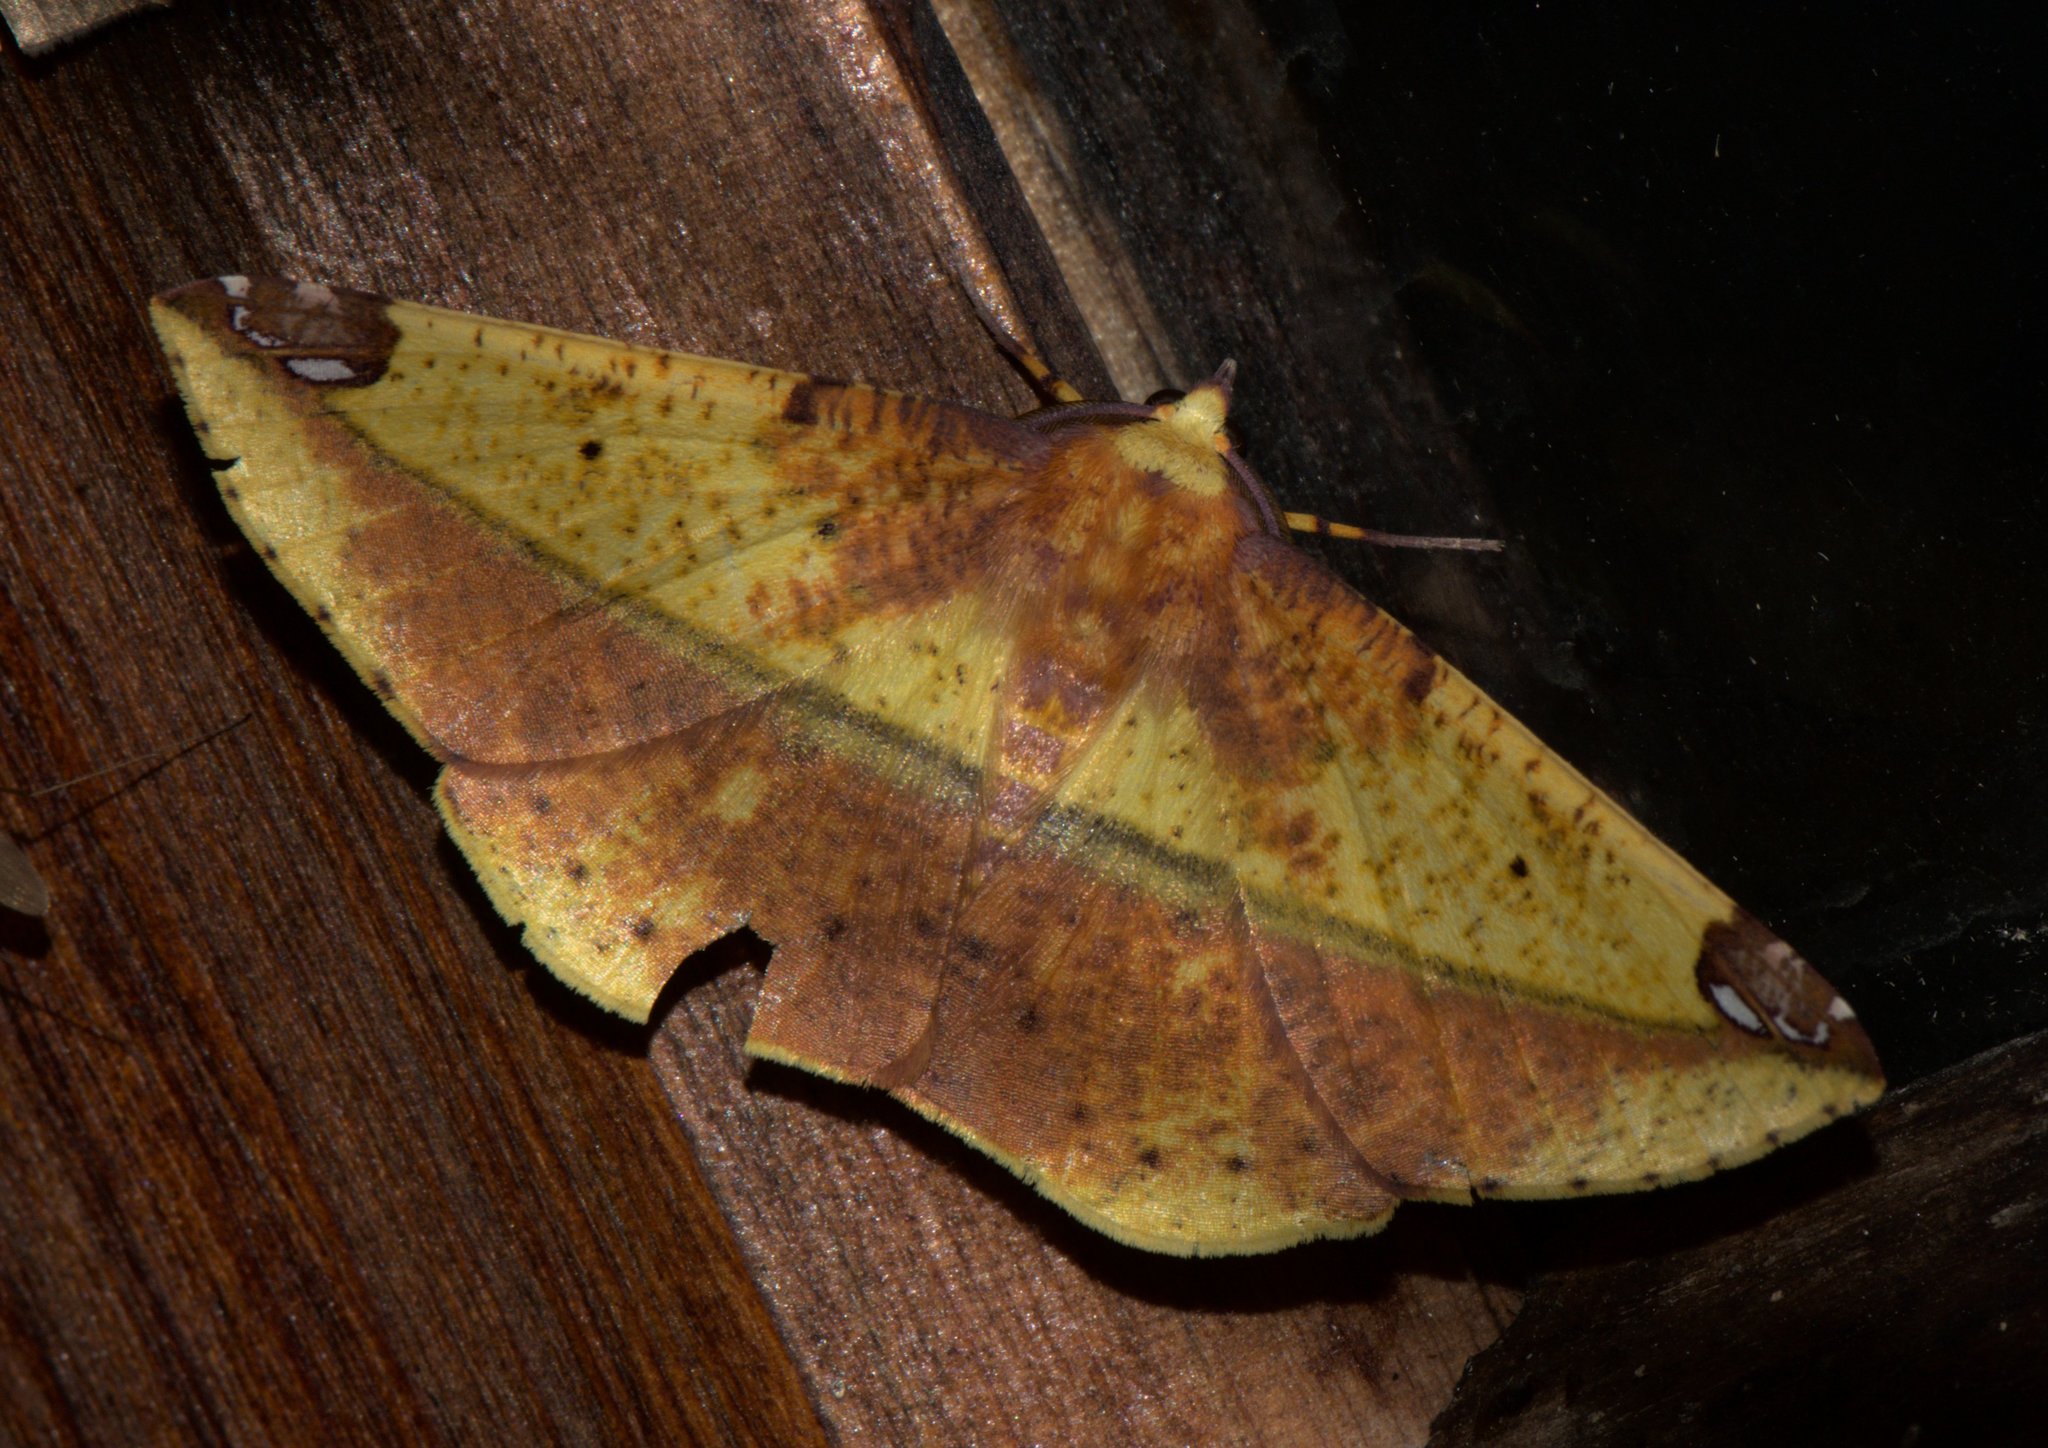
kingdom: Animalia
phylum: Arthropoda
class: Insecta
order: Lepidoptera
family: Geometridae
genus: Mimomiza
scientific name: Mimomiza cruentaria
